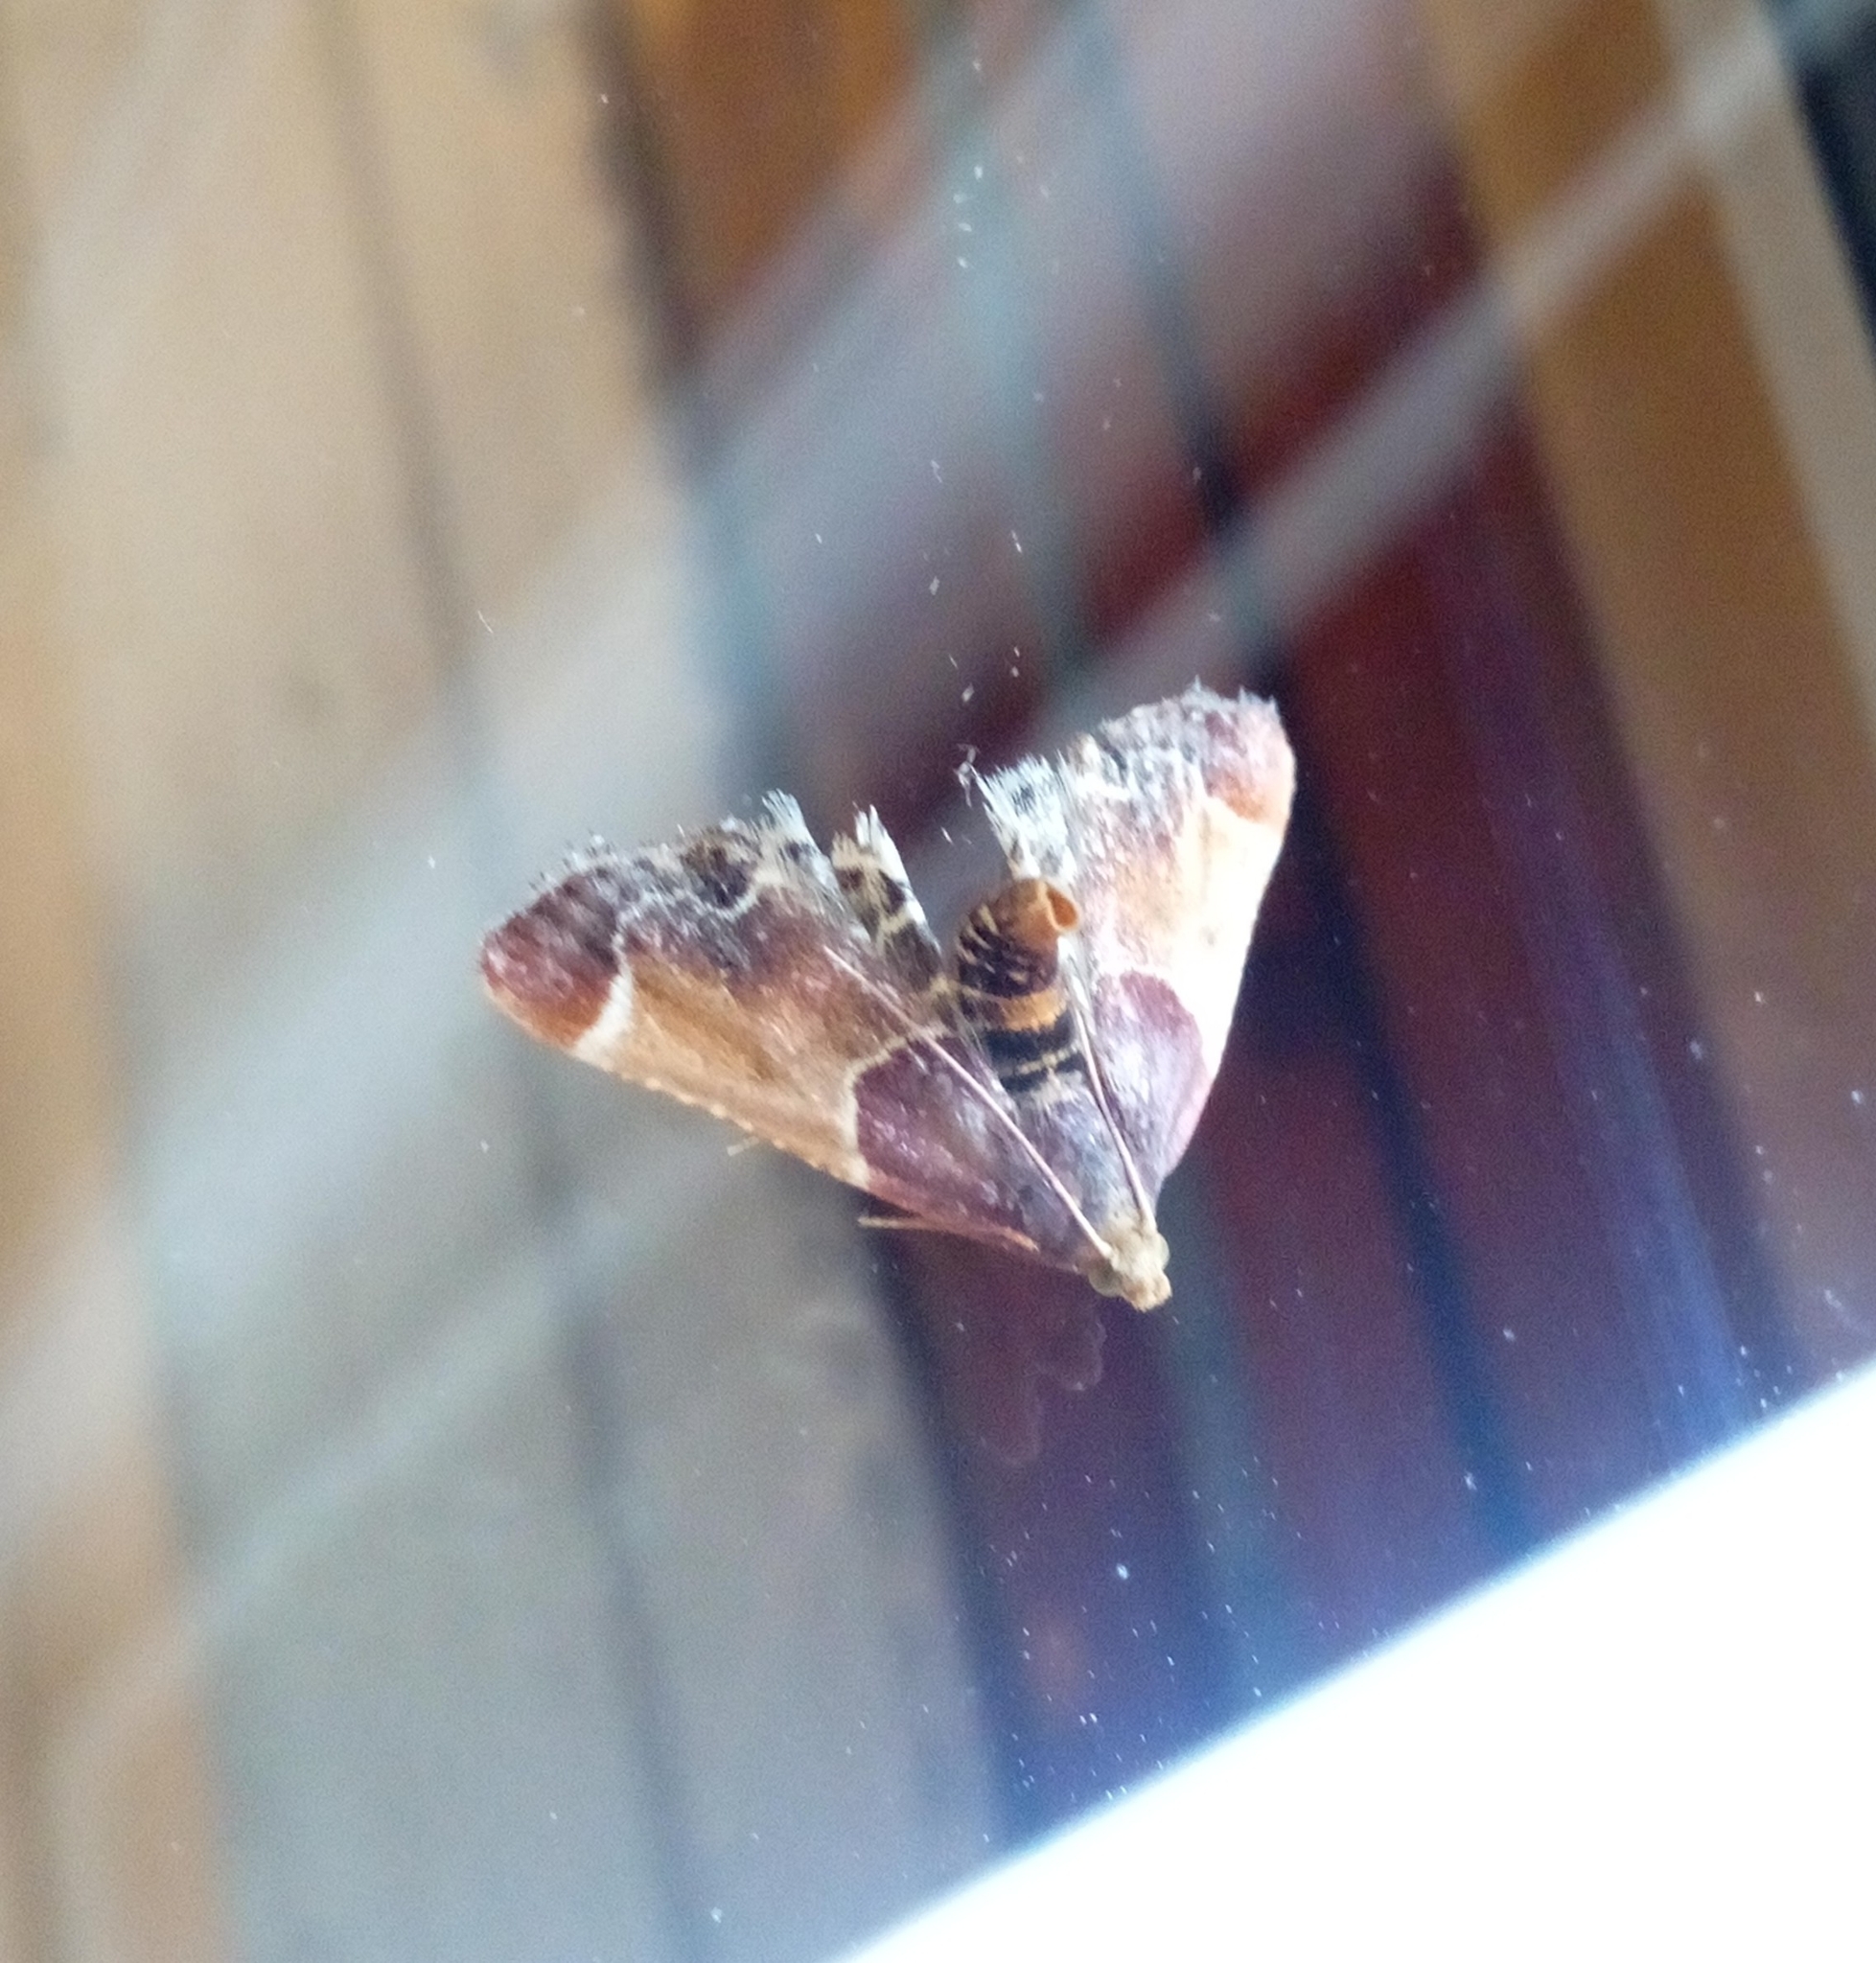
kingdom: Animalia
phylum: Arthropoda
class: Insecta
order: Lepidoptera
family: Pyralidae
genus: Pyralis
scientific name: Pyralis farinalis
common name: Meal moth
